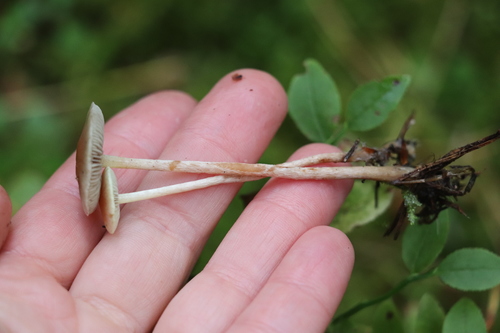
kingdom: Fungi
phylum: Basidiomycota
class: Agaricomycetes
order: Agaricales
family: Strophariaceae
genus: Hypholoma
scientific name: Hypholoma polytrichi
